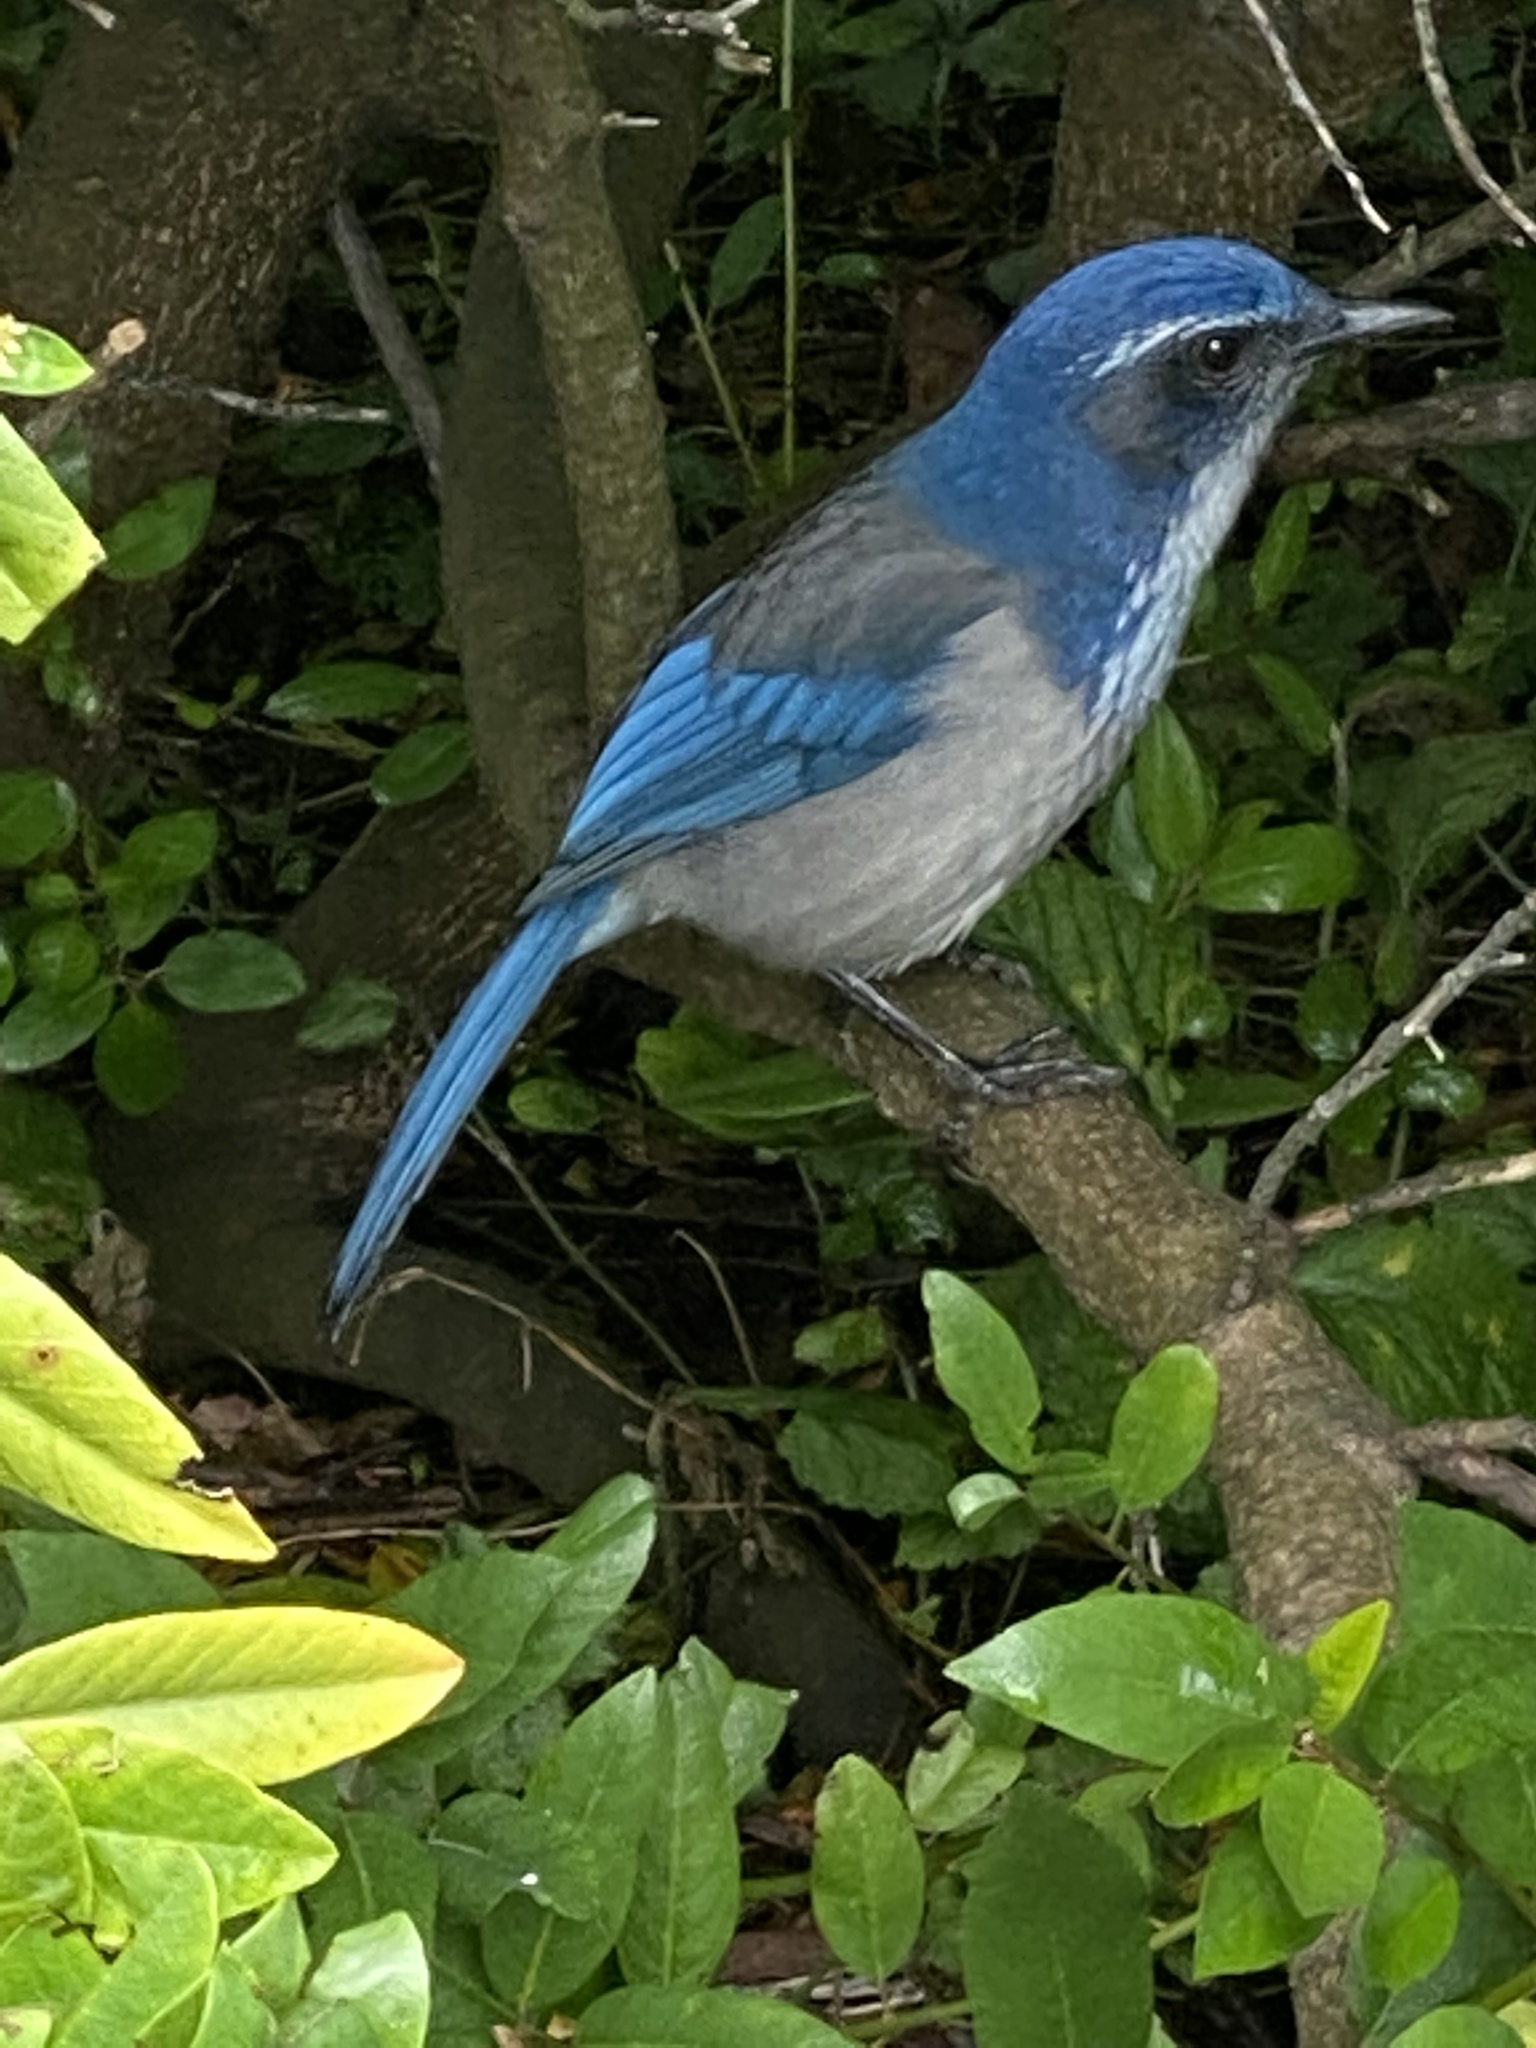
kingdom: Animalia
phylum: Chordata
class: Aves
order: Passeriformes
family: Corvidae
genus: Aphelocoma
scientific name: Aphelocoma californica
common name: California scrub-jay
